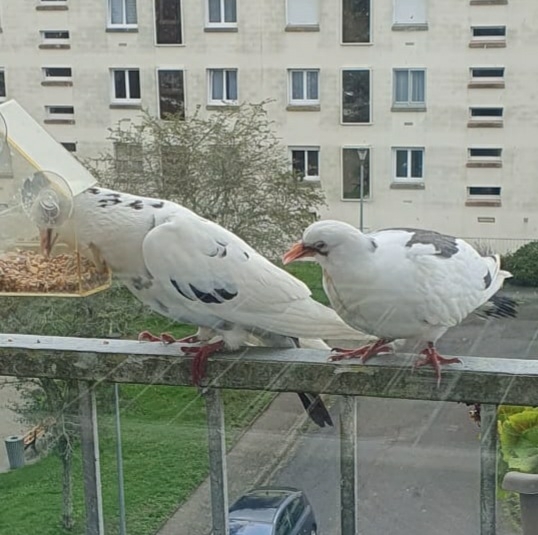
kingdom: Animalia
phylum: Chordata
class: Aves
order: Columbiformes
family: Columbidae
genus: Columba
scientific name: Columba livia
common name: Rock pigeon
